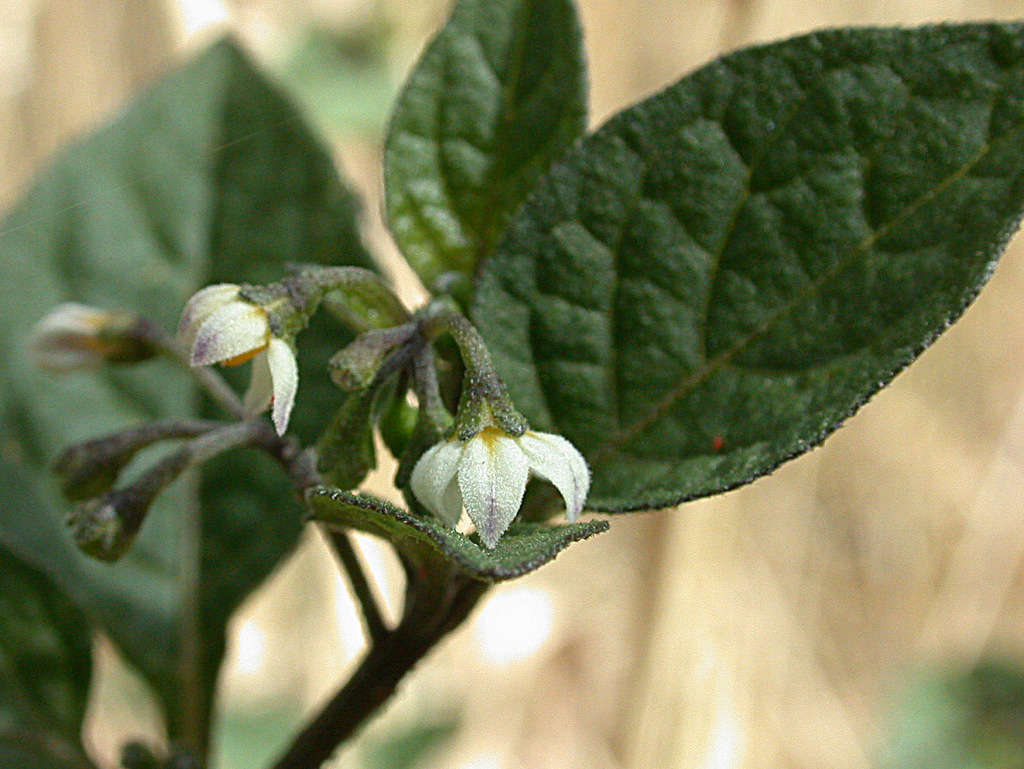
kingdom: Plantae
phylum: Tracheophyta
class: Magnoliopsida
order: Solanales
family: Solanaceae
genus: Solanum
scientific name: Solanum nigrum
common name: Black nightshade
